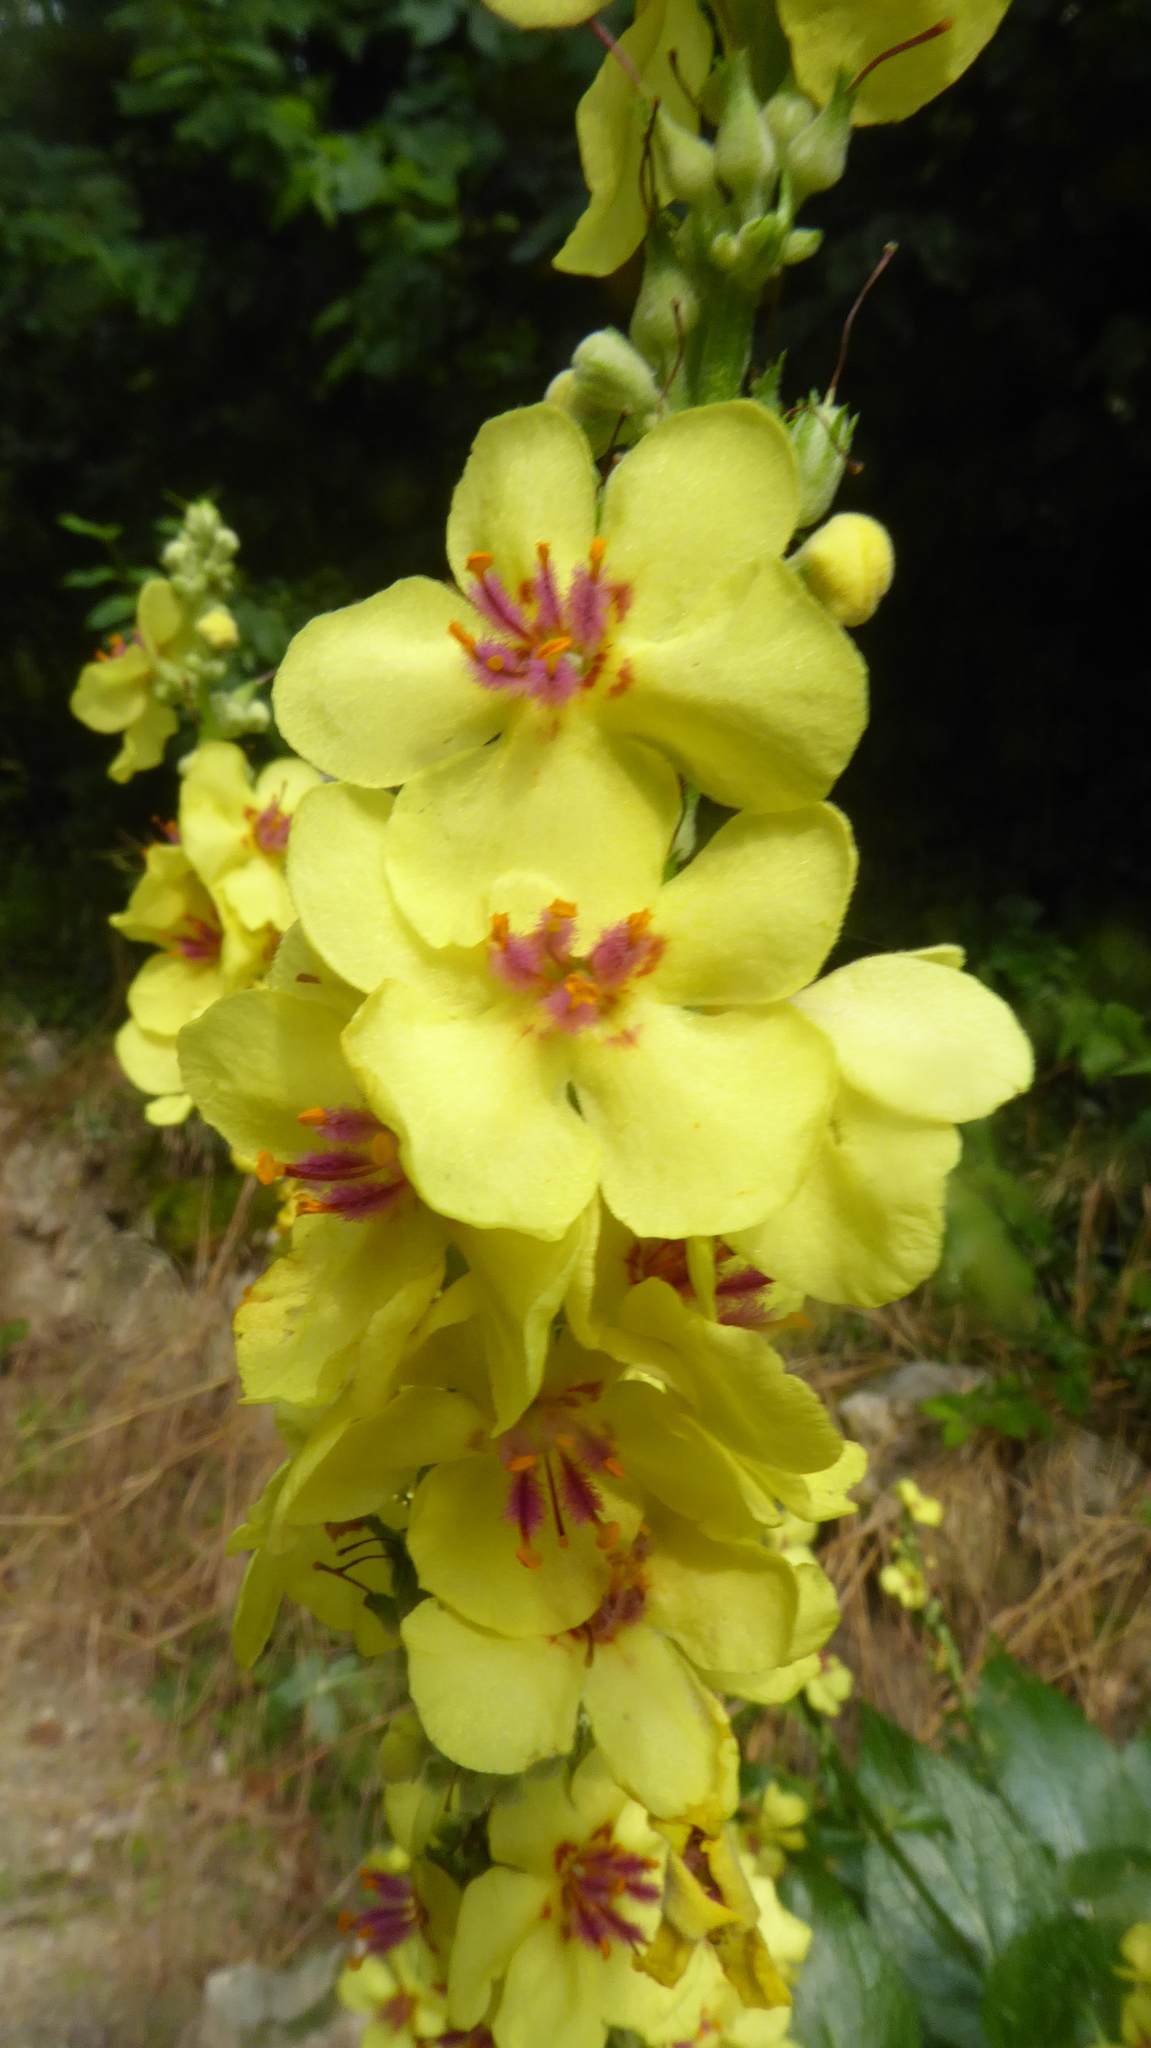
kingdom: Plantae
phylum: Tracheophyta
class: Magnoliopsida
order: Lamiales
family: Scrophulariaceae
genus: Verbascum
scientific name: Verbascum chaixii
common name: Nettle-leaved mullein
